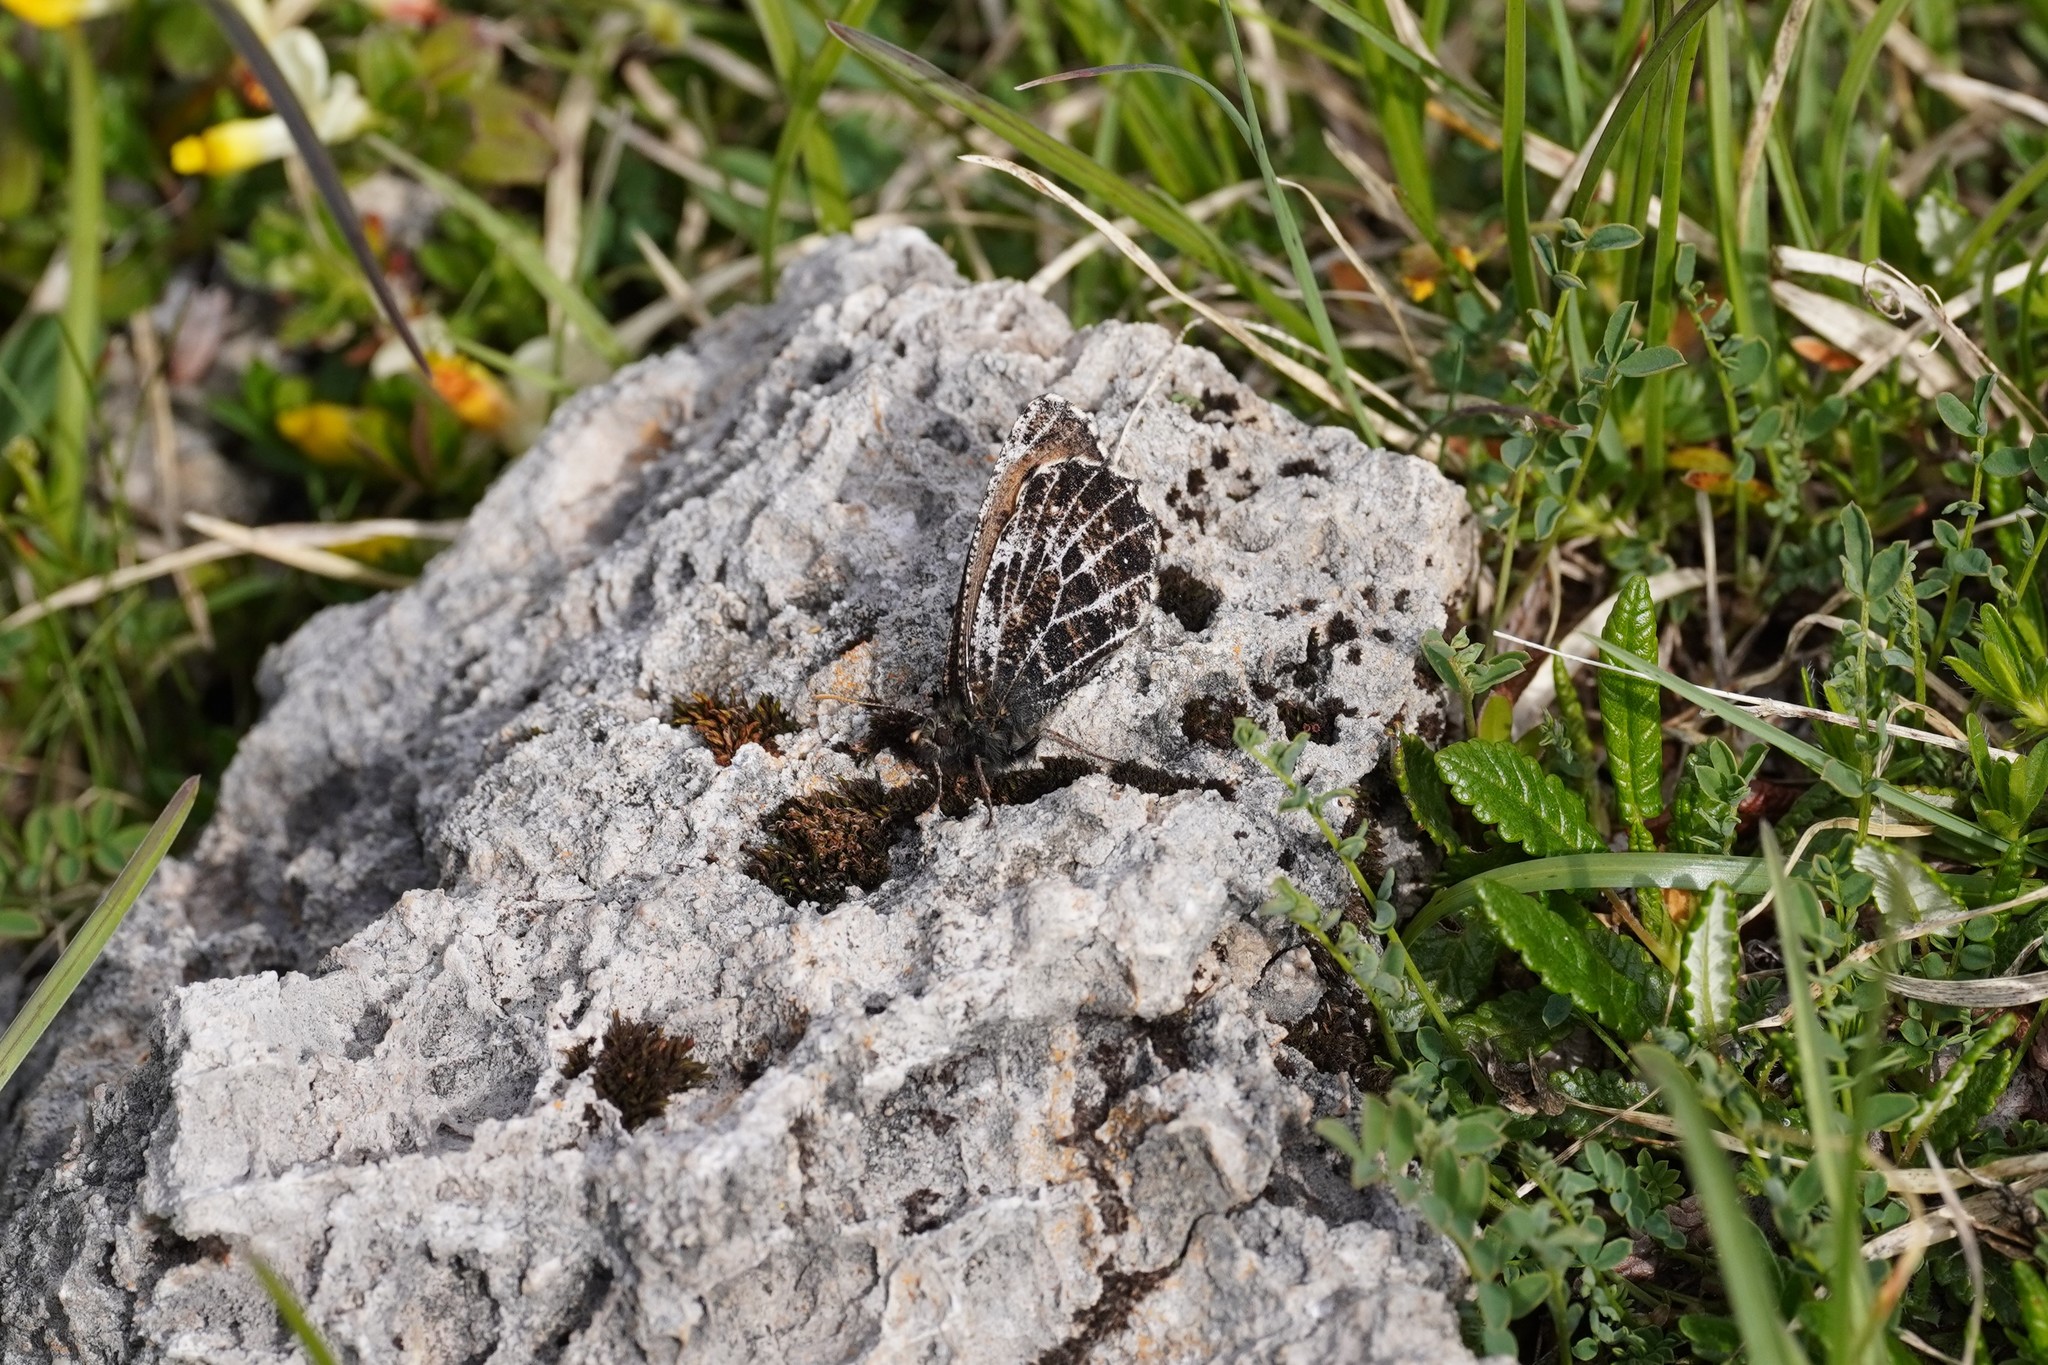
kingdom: Animalia
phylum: Arthropoda
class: Insecta
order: Lepidoptera
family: Nymphalidae
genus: Oeneis
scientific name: Oeneis aello
